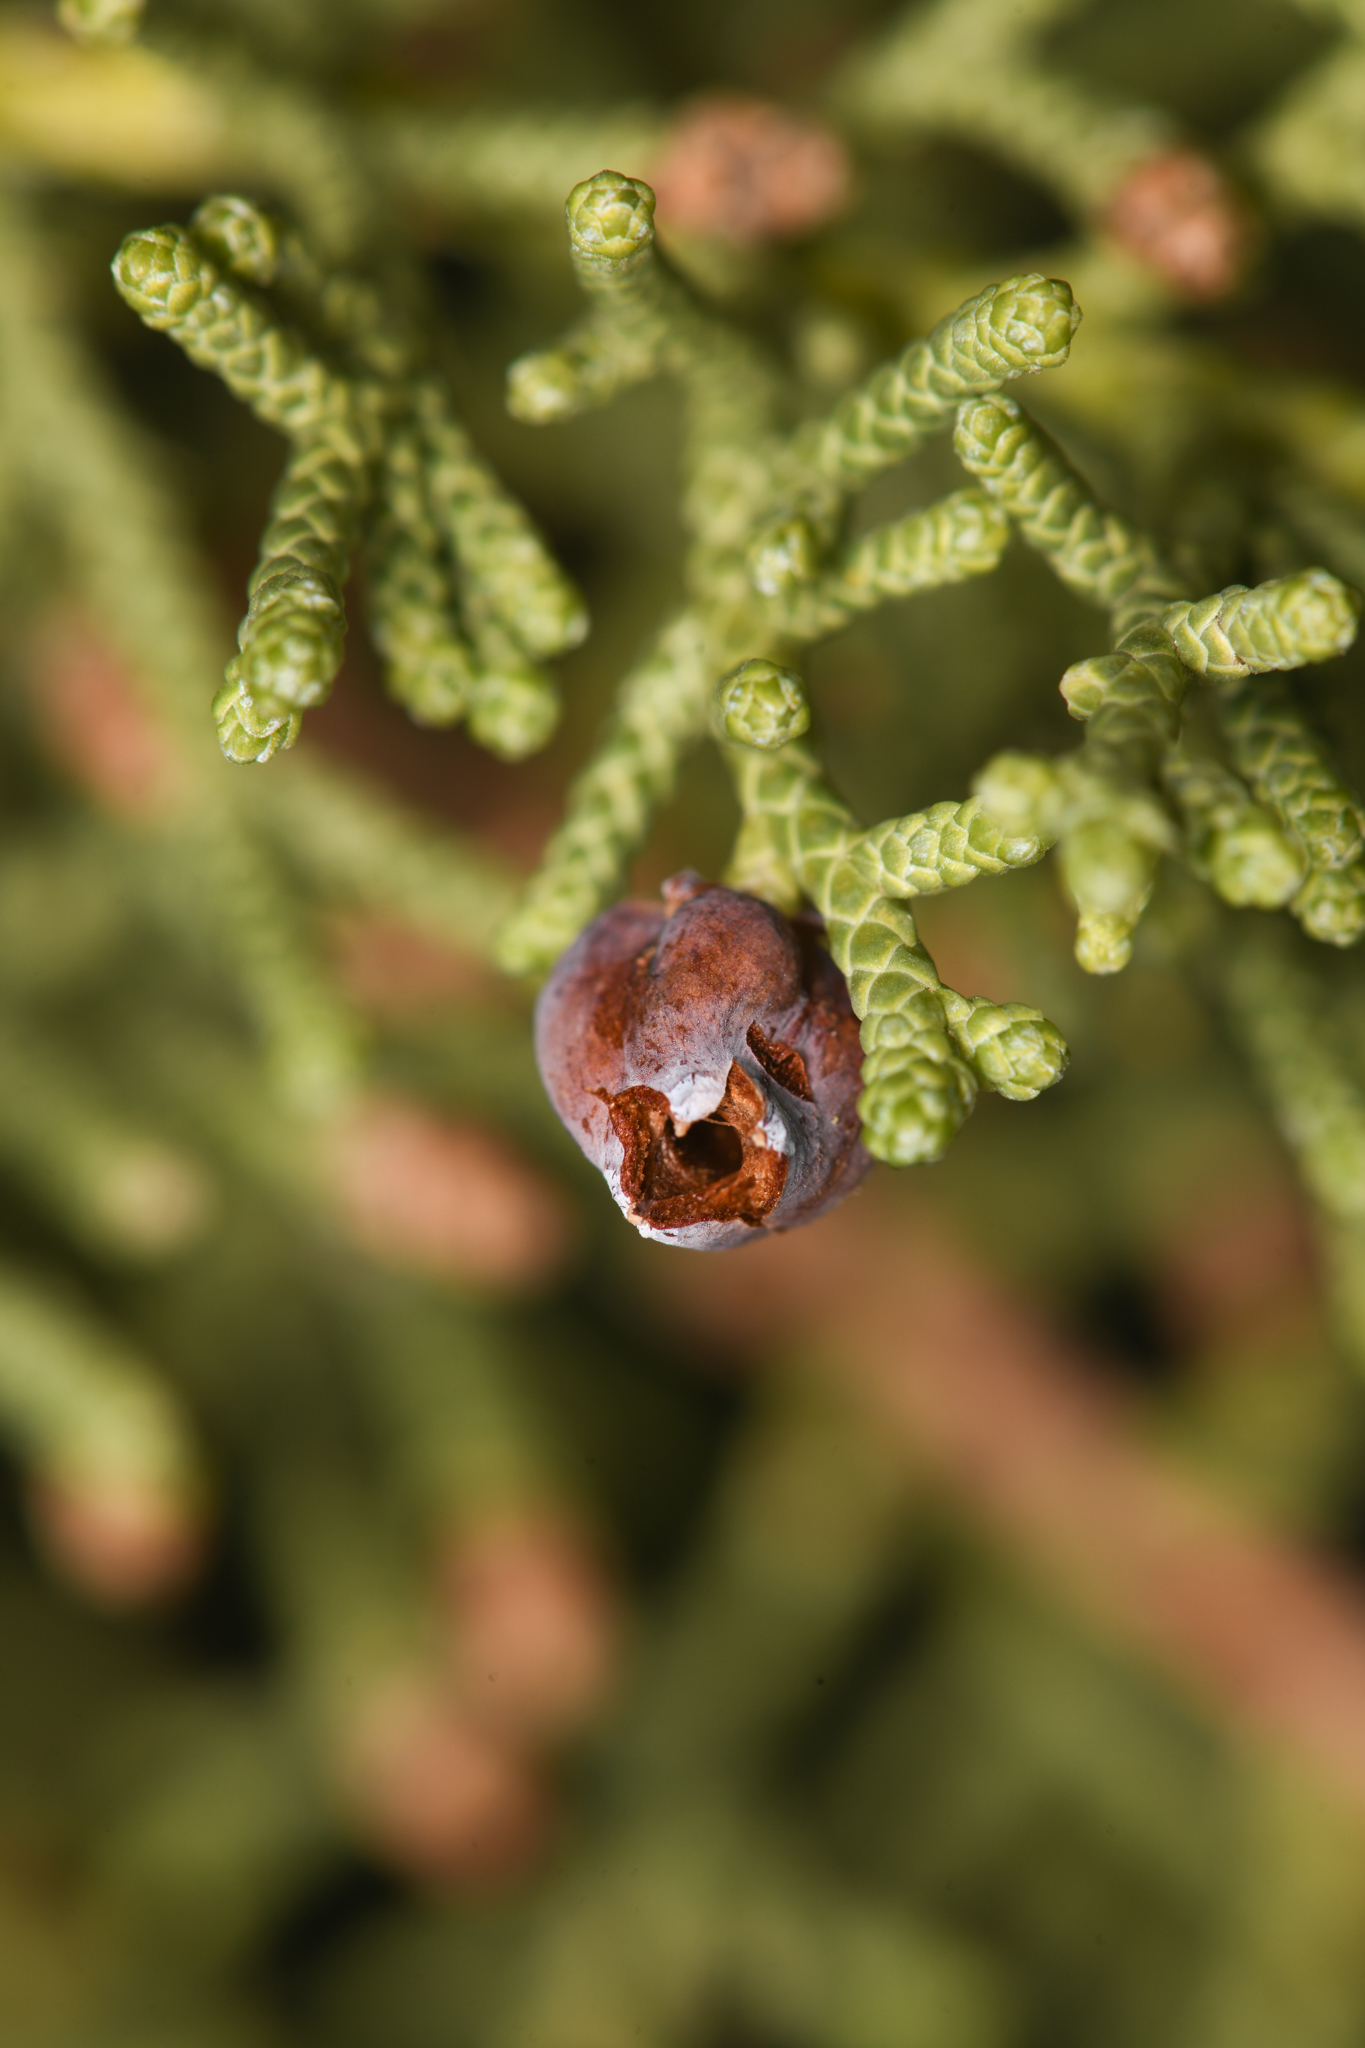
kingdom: Animalia
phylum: Arthropoda
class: Insecta
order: Diptera
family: Cecidomyiidae
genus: Walshomyia
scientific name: Walshomyia juniperina
